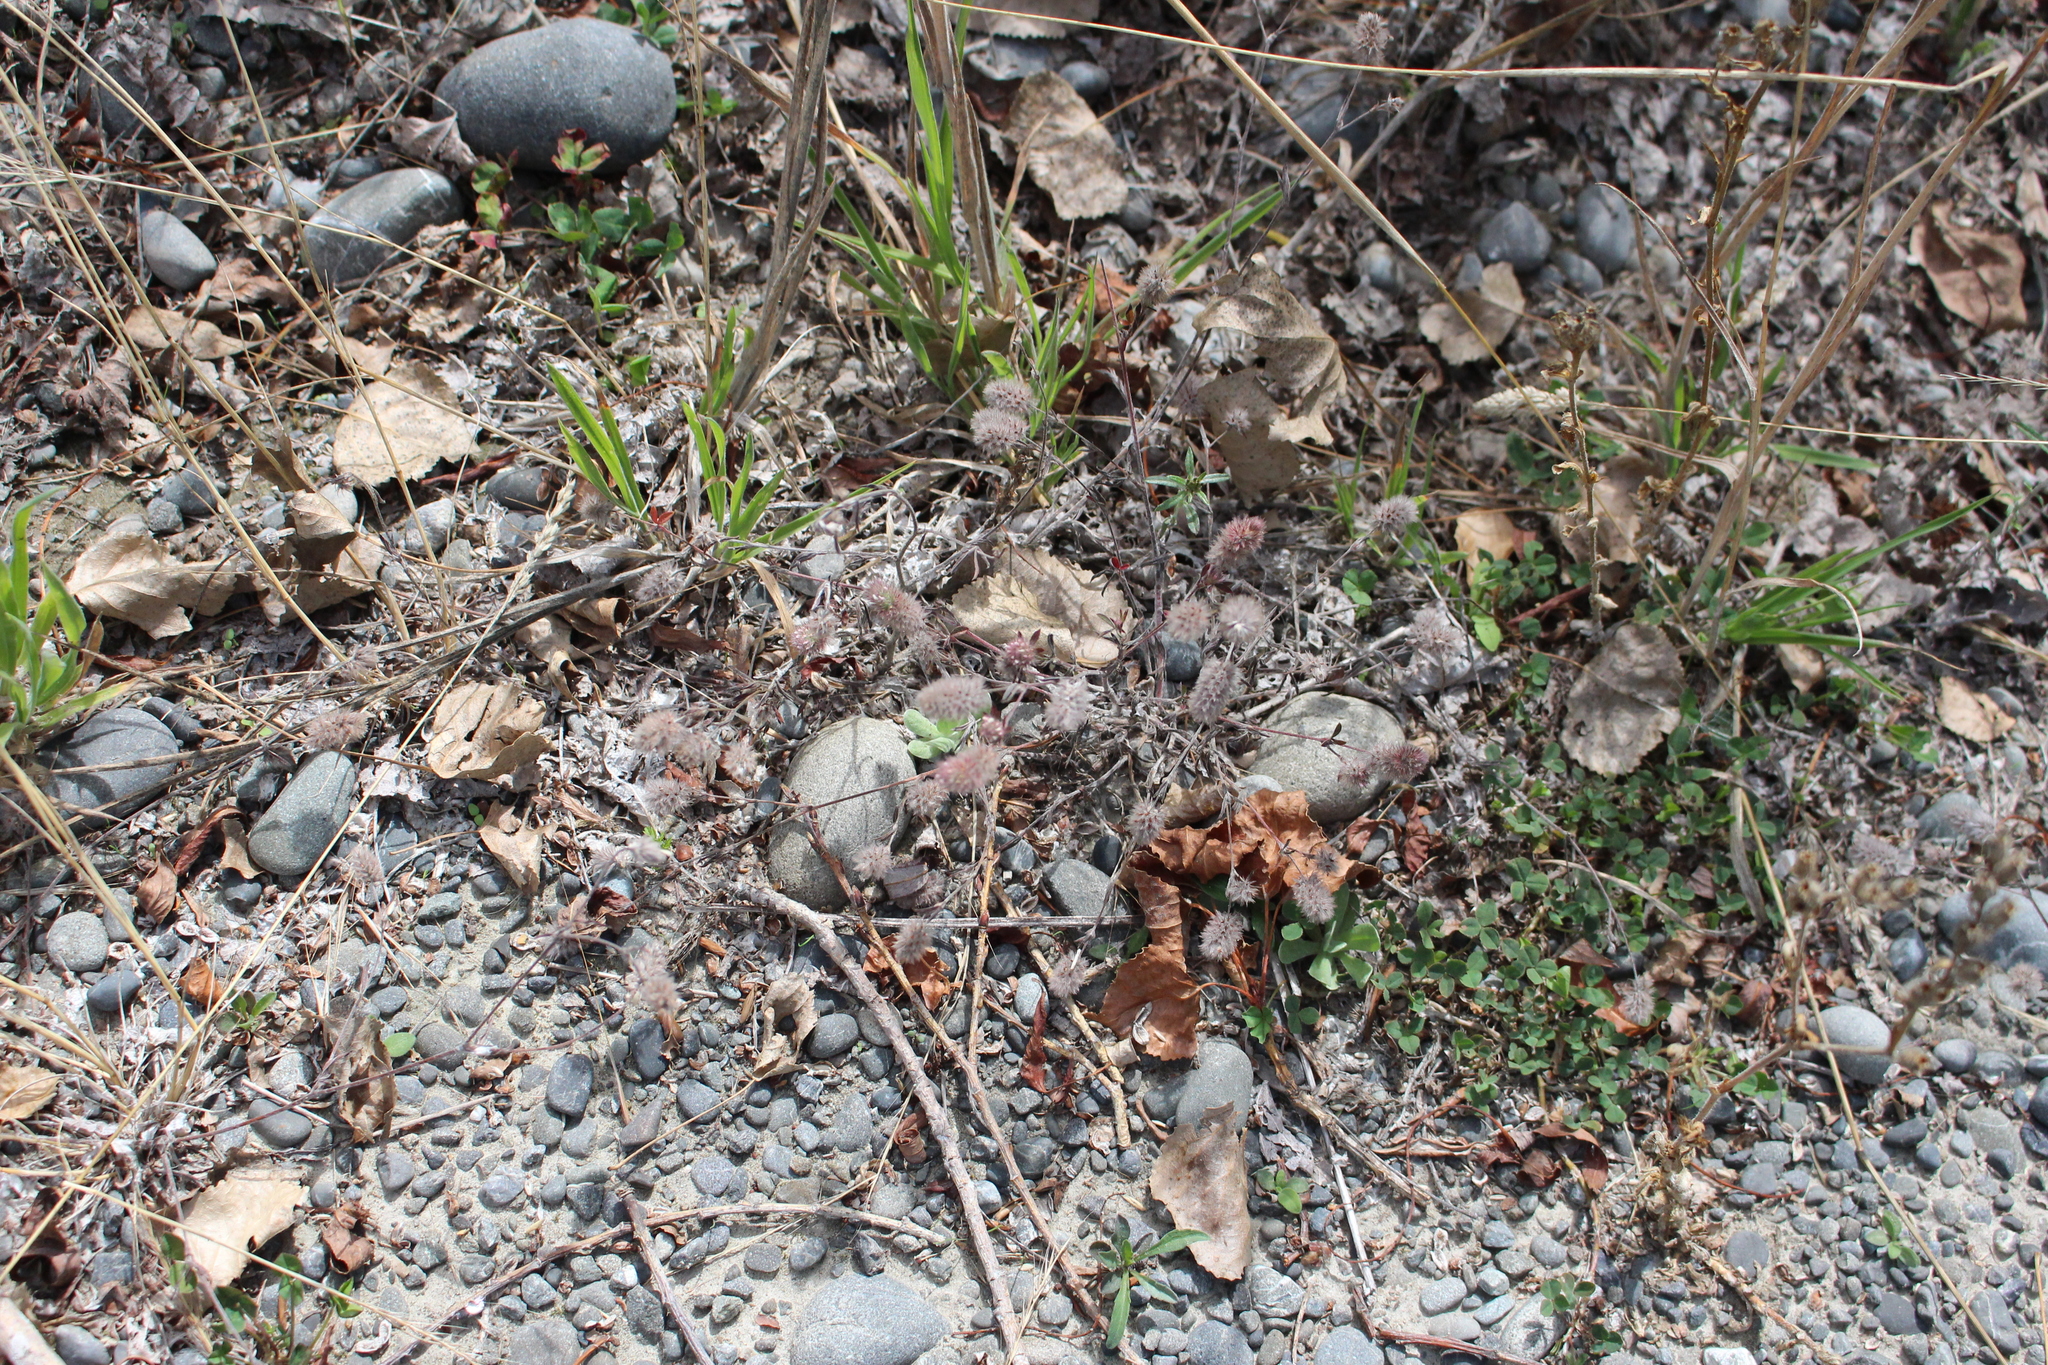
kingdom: Plantae
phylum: Tracheophyta
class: Magnoliopsida
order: Fabales
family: Fabaceae
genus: Trifolium
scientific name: Trifolium arvense
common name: Hare's-foot clover
